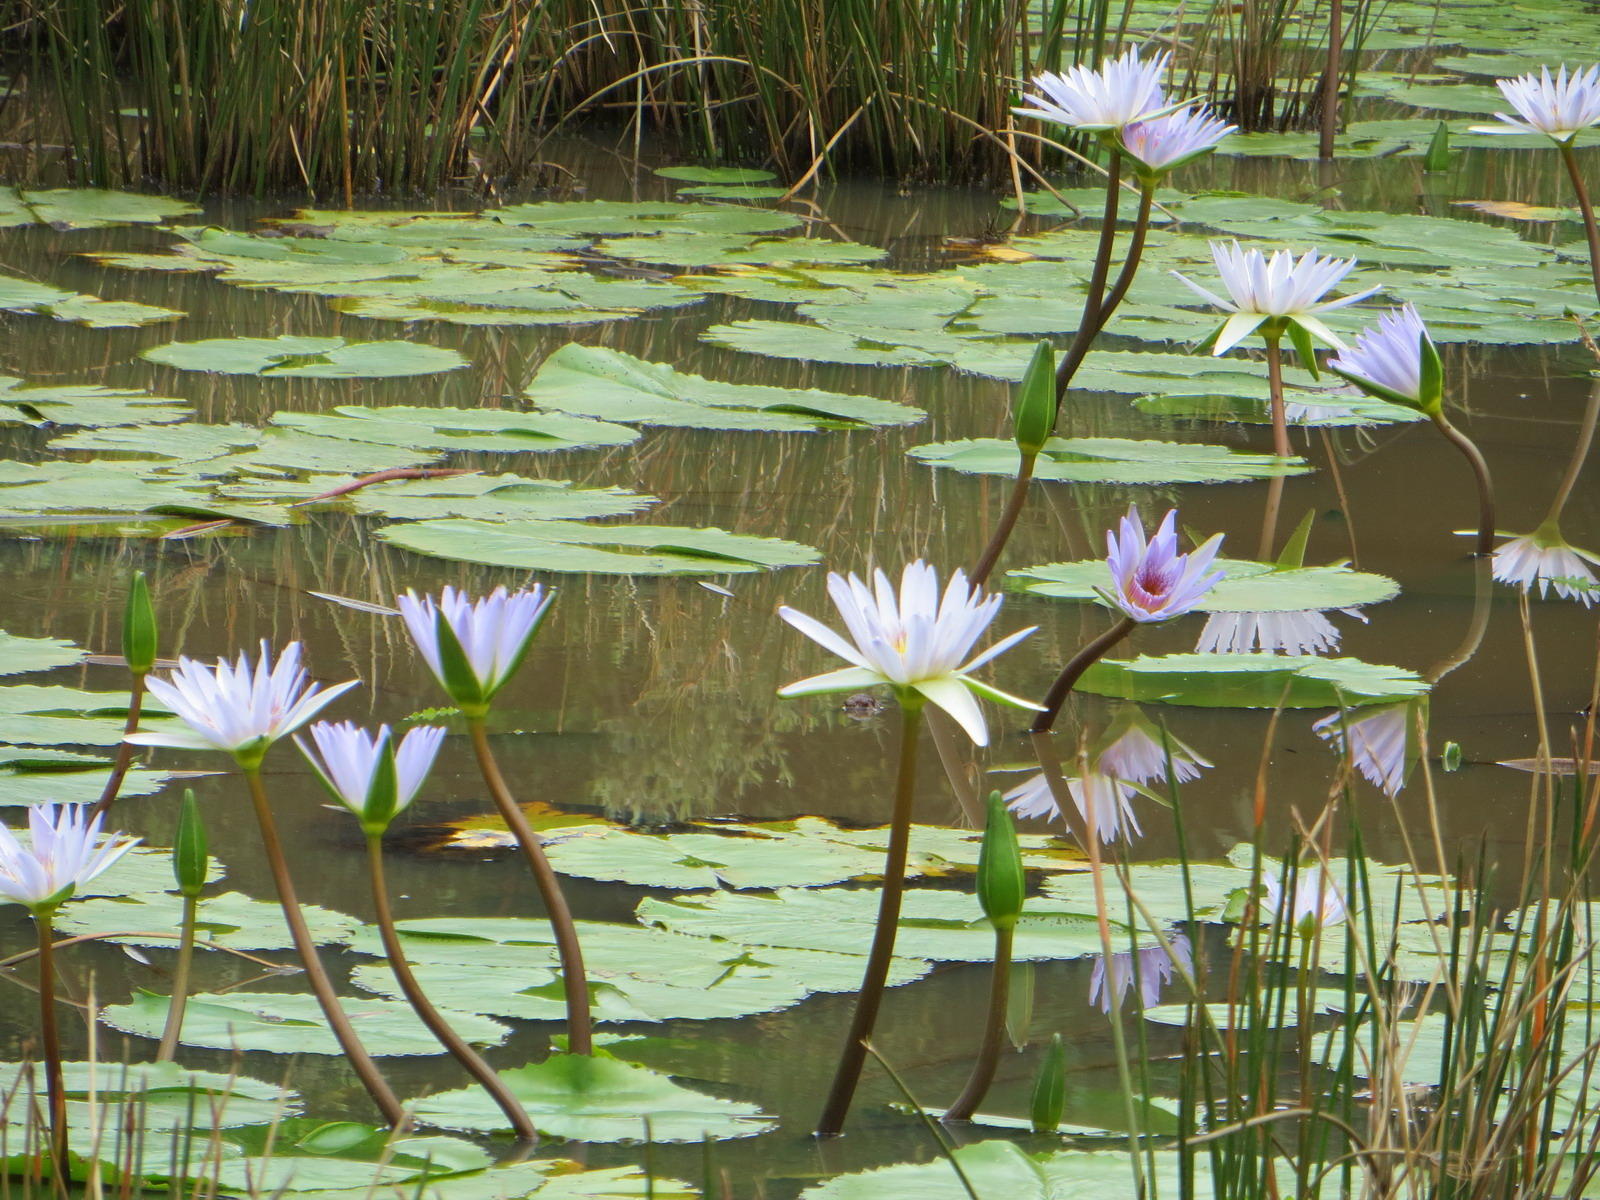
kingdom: Plantae
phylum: Tracheophyta
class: Magnoliopsida
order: Nymphaeales
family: Nymphaeaceae
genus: Nymphaea
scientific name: Nymphaea nouchali
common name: Blue lotus
